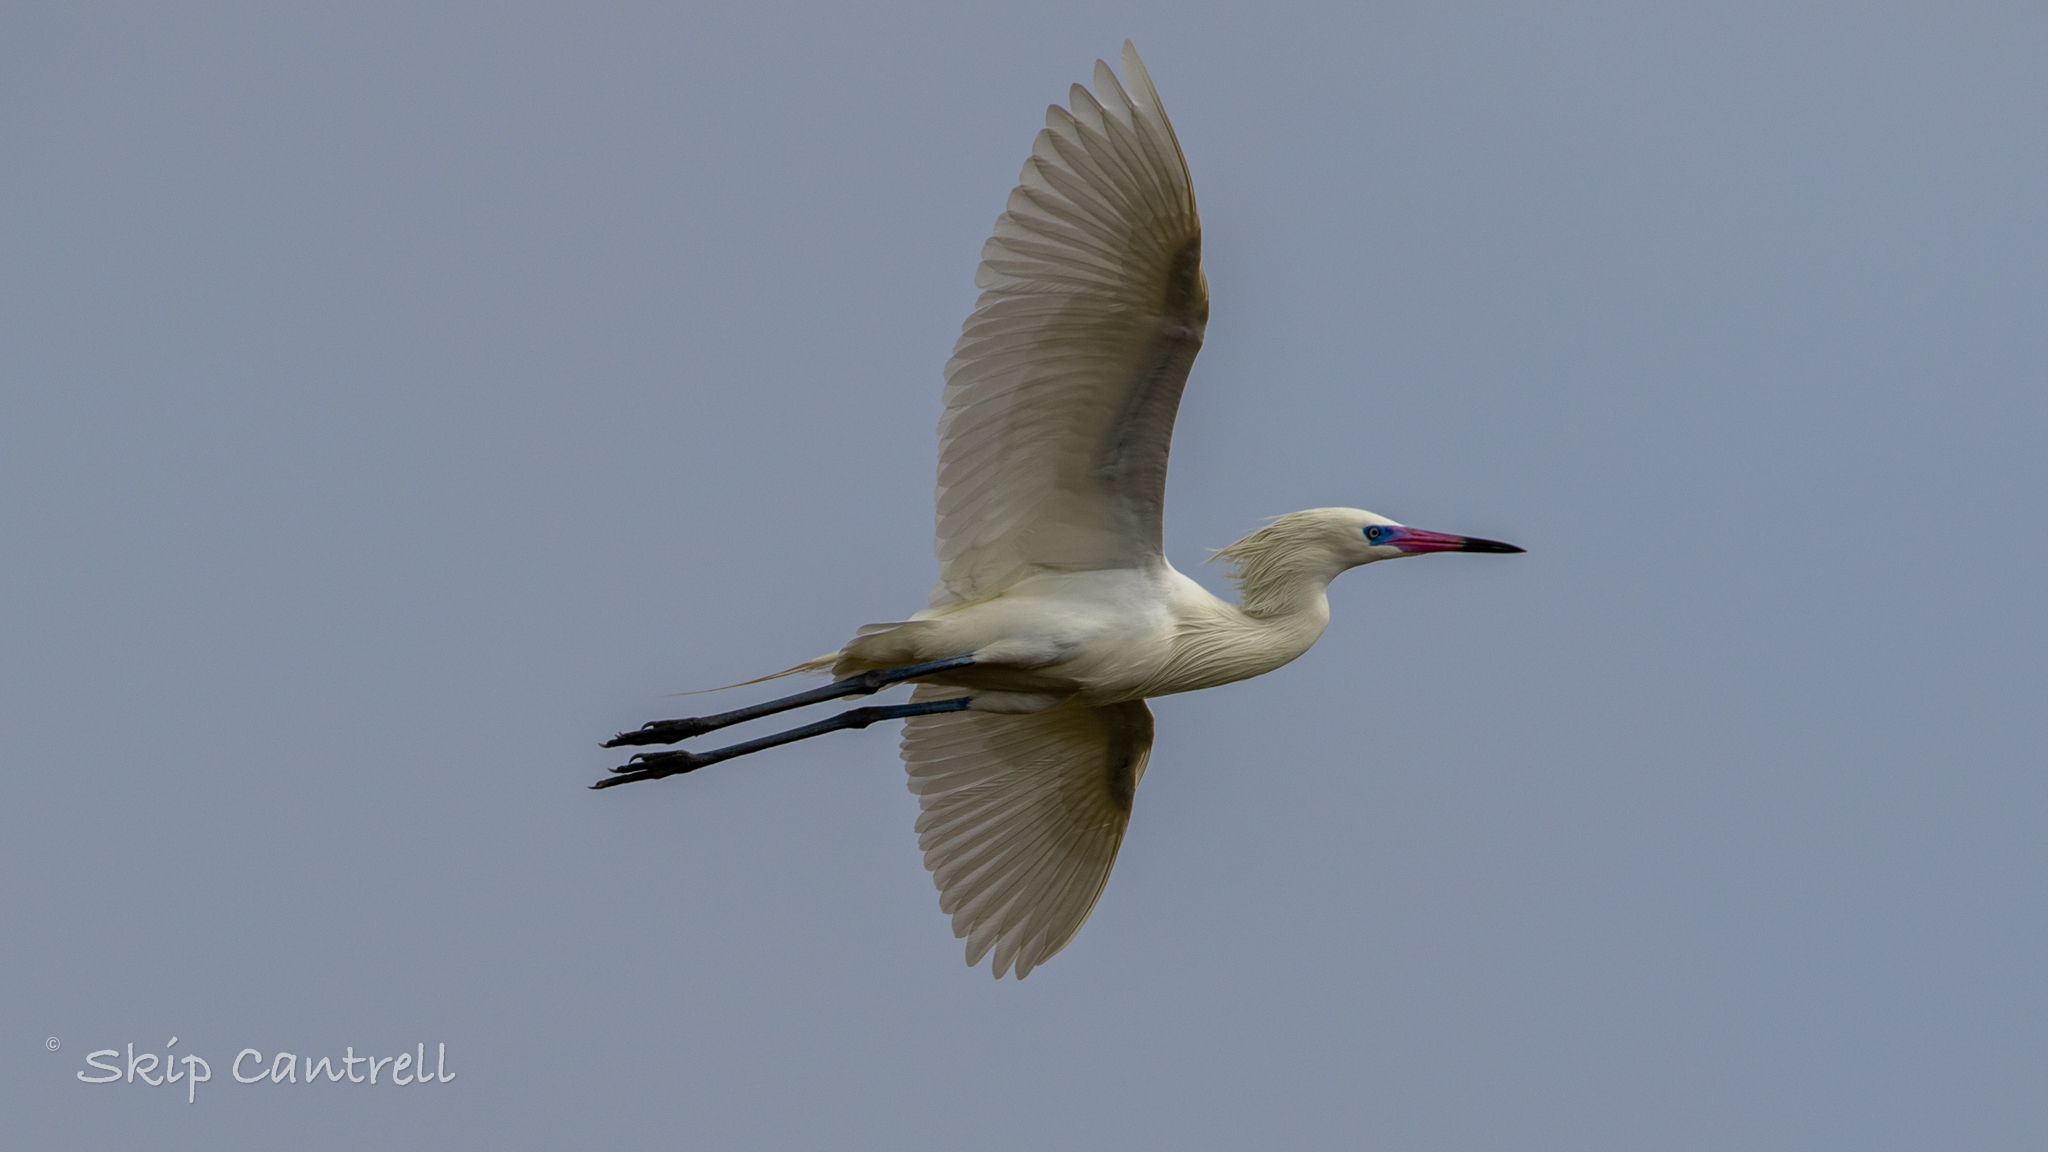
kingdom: Animalia
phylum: Chordata
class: Aves
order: Pelecaniformes
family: Ardeidae
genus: Egretta
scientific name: Egretta rufescens
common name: Reddish egret
